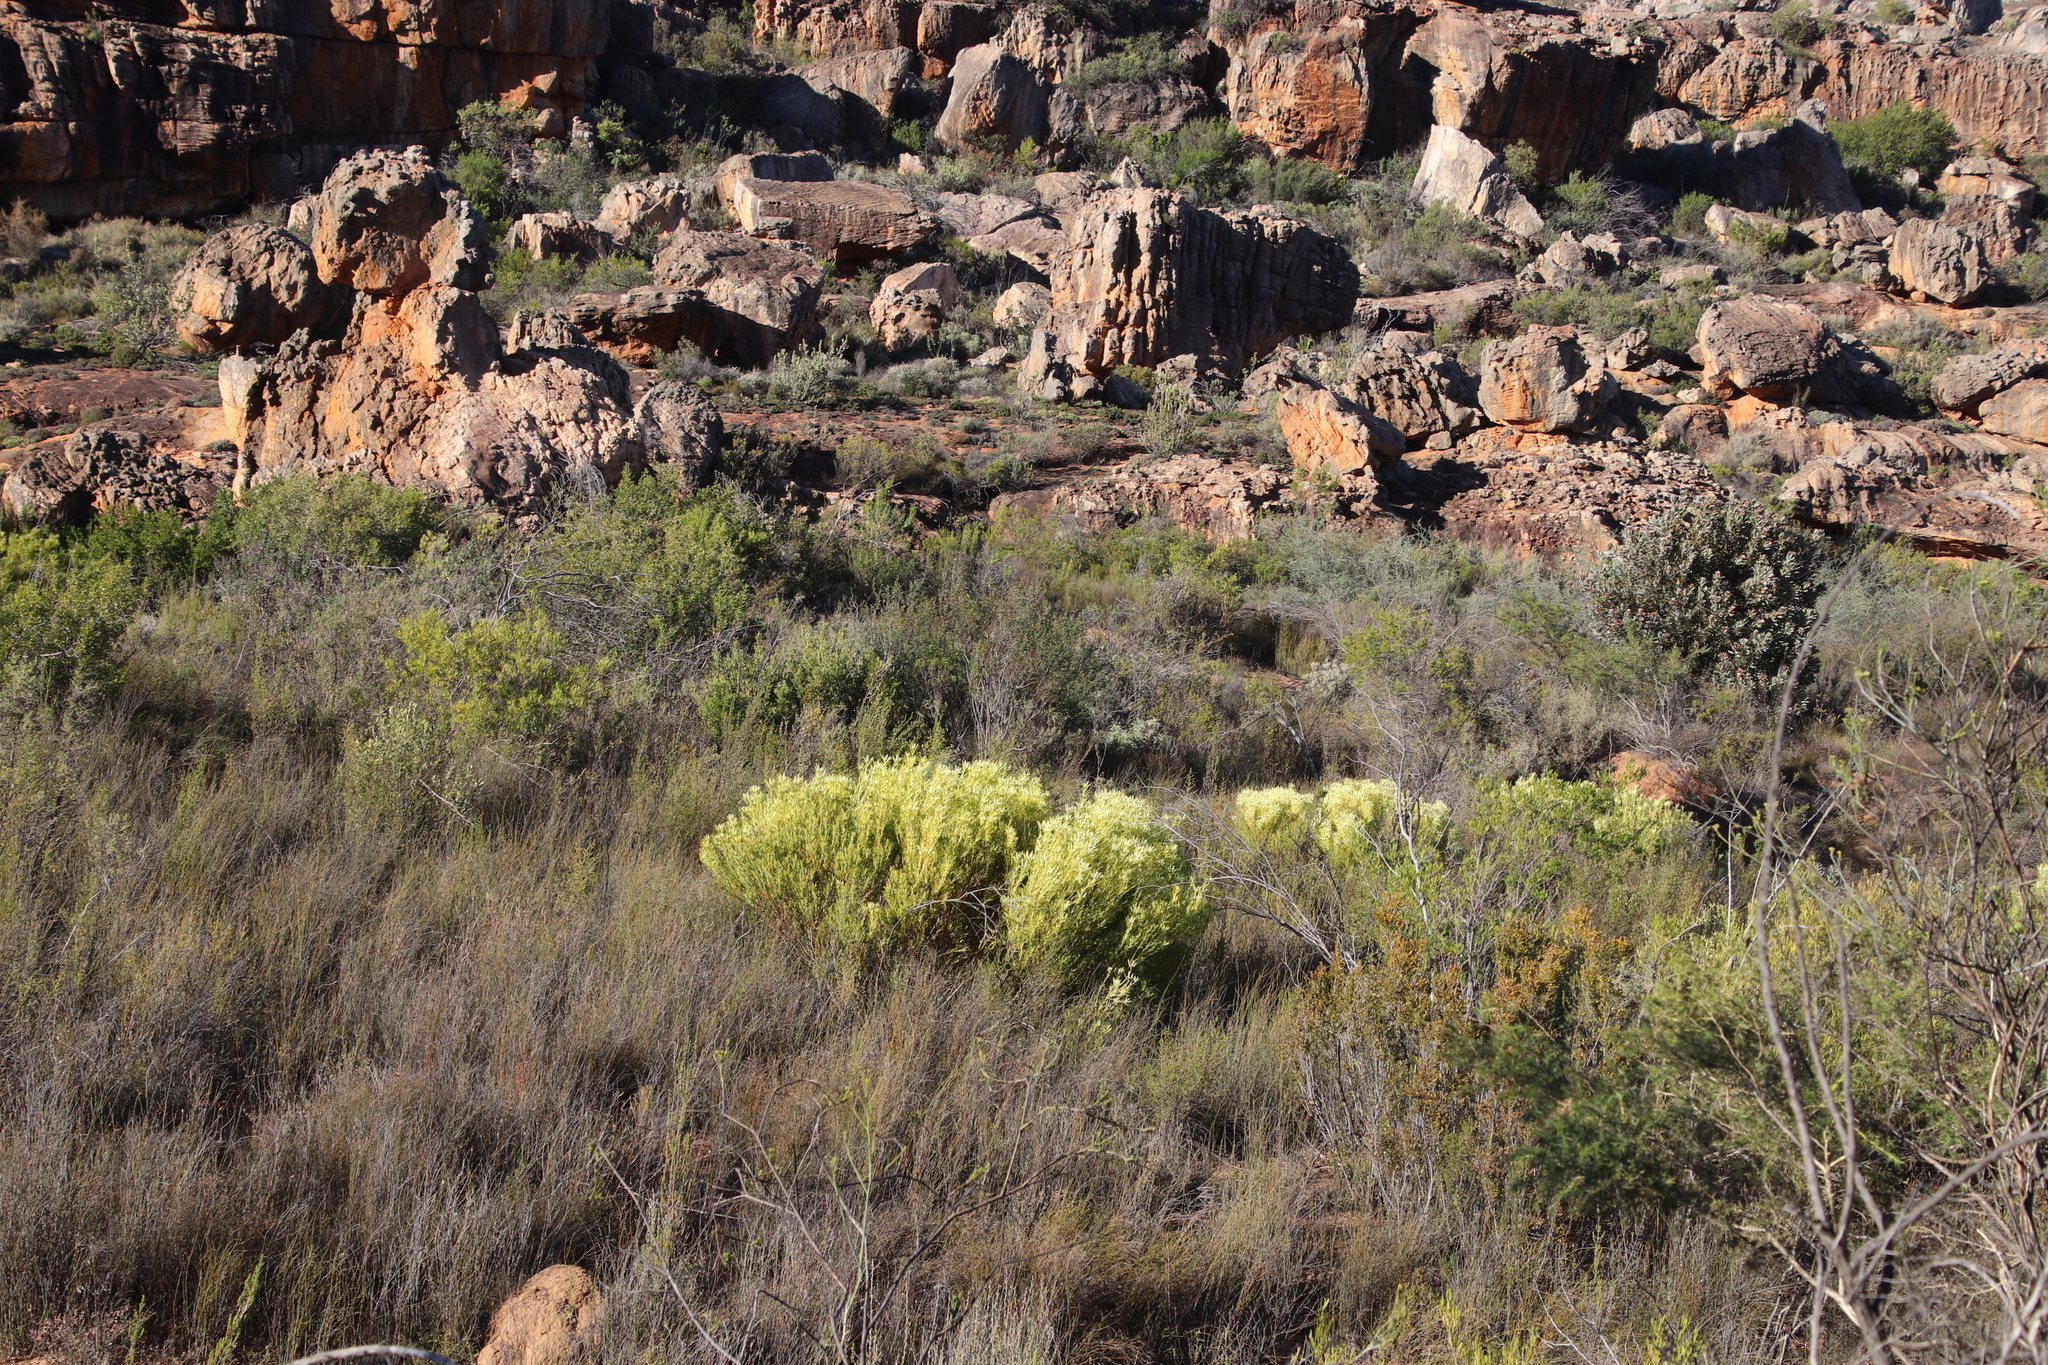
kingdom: Plantae
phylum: Tracheophyta
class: Magnoliopsida
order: Proteales
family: Proteaceae
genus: Leucadendron
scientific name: Leucadendron salignum
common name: Common sunshine conebush
